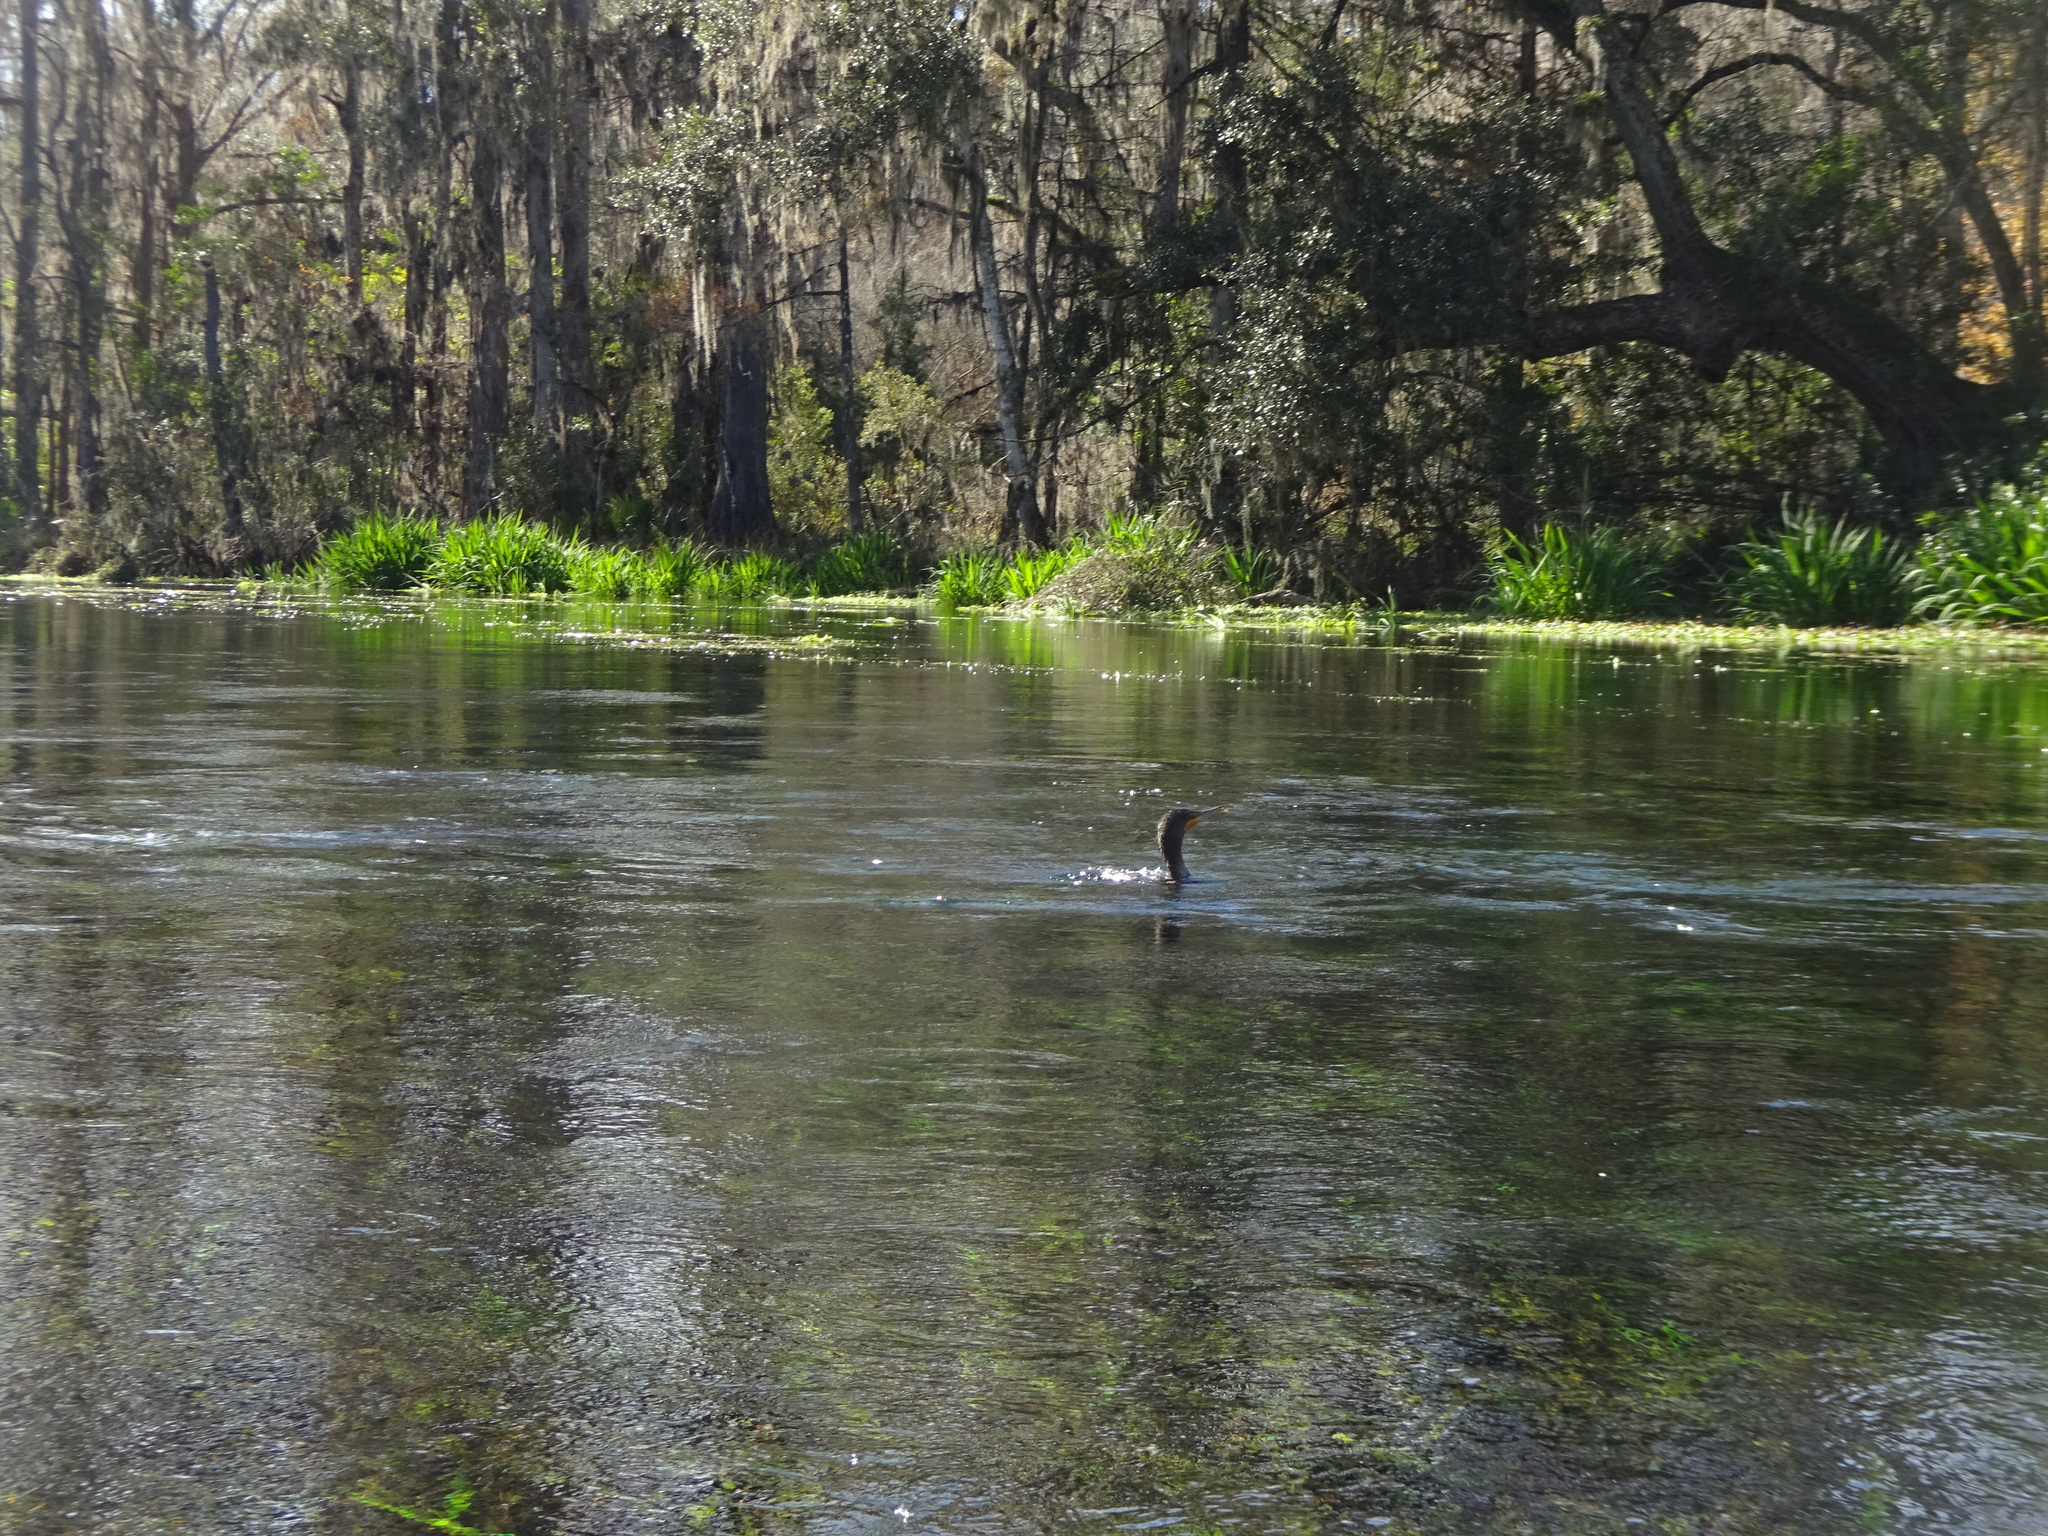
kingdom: Animalia
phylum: Chordata
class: Aves
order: Suliformes
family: Phalacrocoracidae
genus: Phalacrocorax
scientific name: Phalacrocorax auritus
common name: Double-crested cormorant
